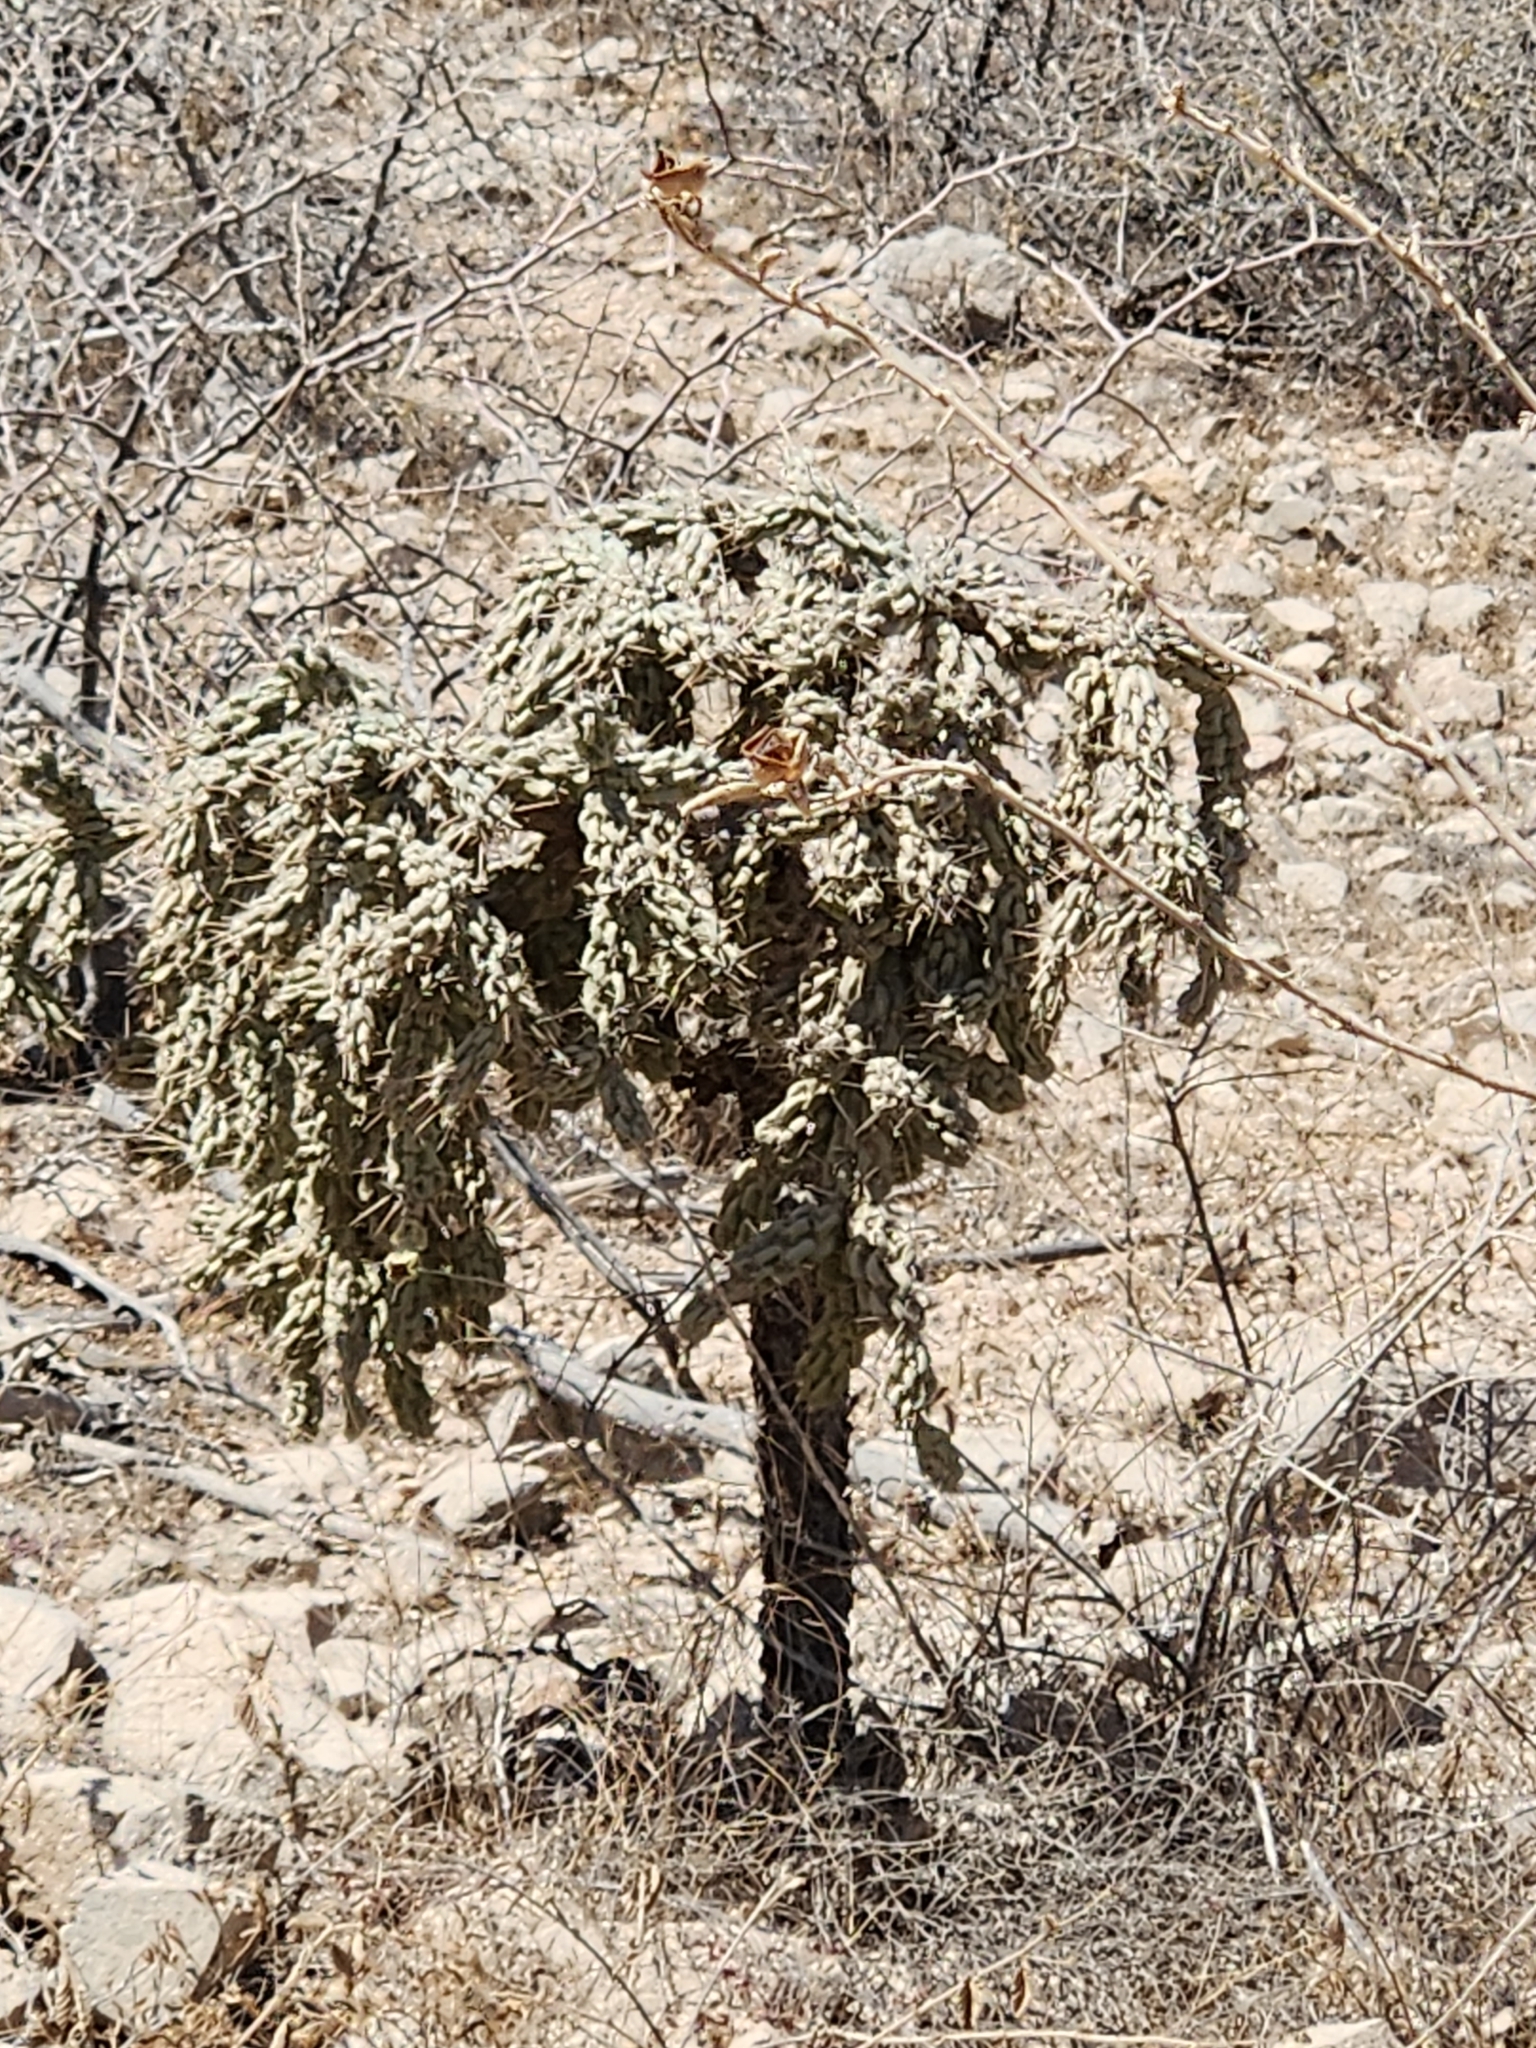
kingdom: Plantae
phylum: Tracheophyta
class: Magnoliopsida
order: Caryophyllales
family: Cactaceae
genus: Cylindropuntia
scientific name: Cylindropuntia cholla
